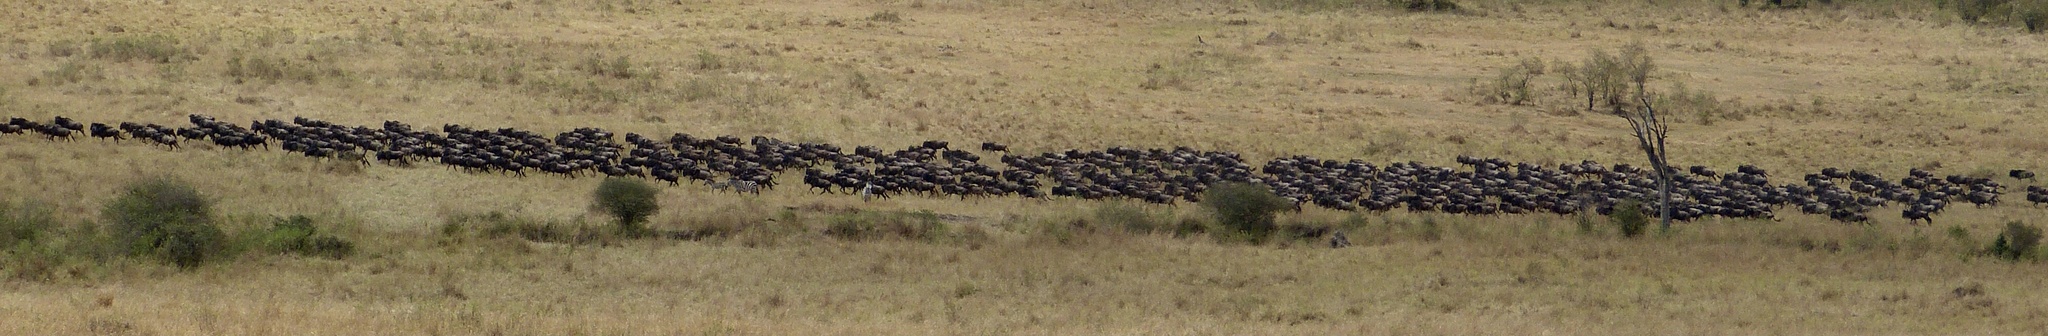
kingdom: Animalia
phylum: Chordata
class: Mammalia
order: Artiodactyla
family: Bovidae
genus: Connochaetes
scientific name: Connochaetes taurinus
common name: Blue wildebeest
